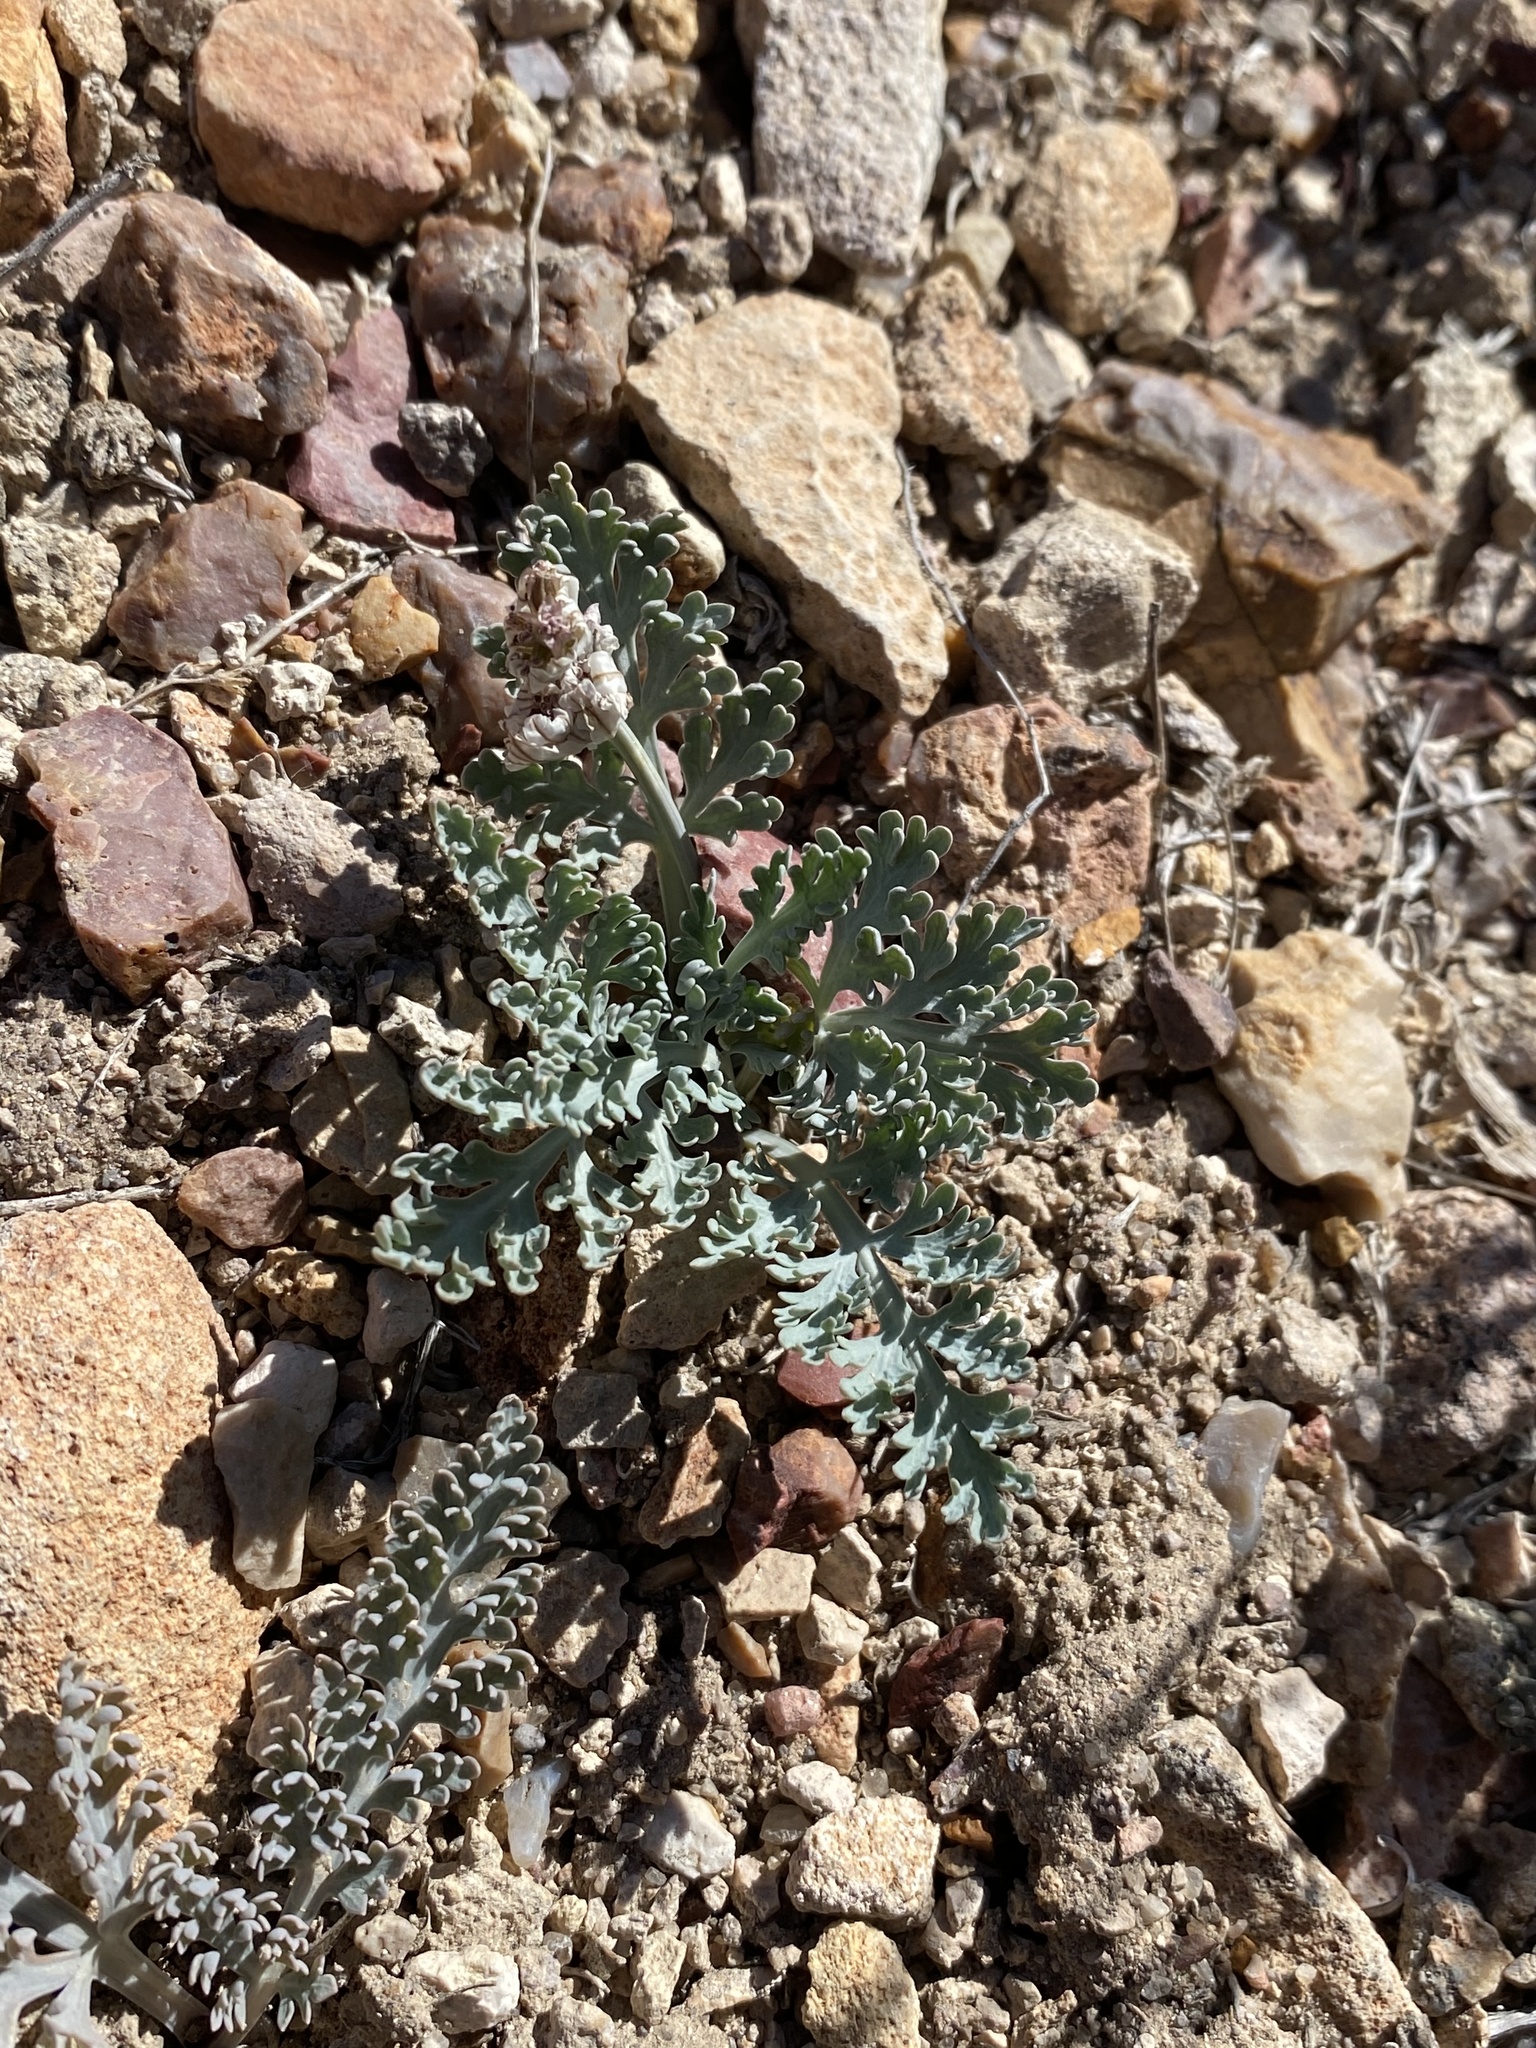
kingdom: Plantae
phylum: Tracheophyta
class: Magnoliopsida
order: Apiales
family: Apiaceae
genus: Vesper
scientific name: Vesper purpurascens
